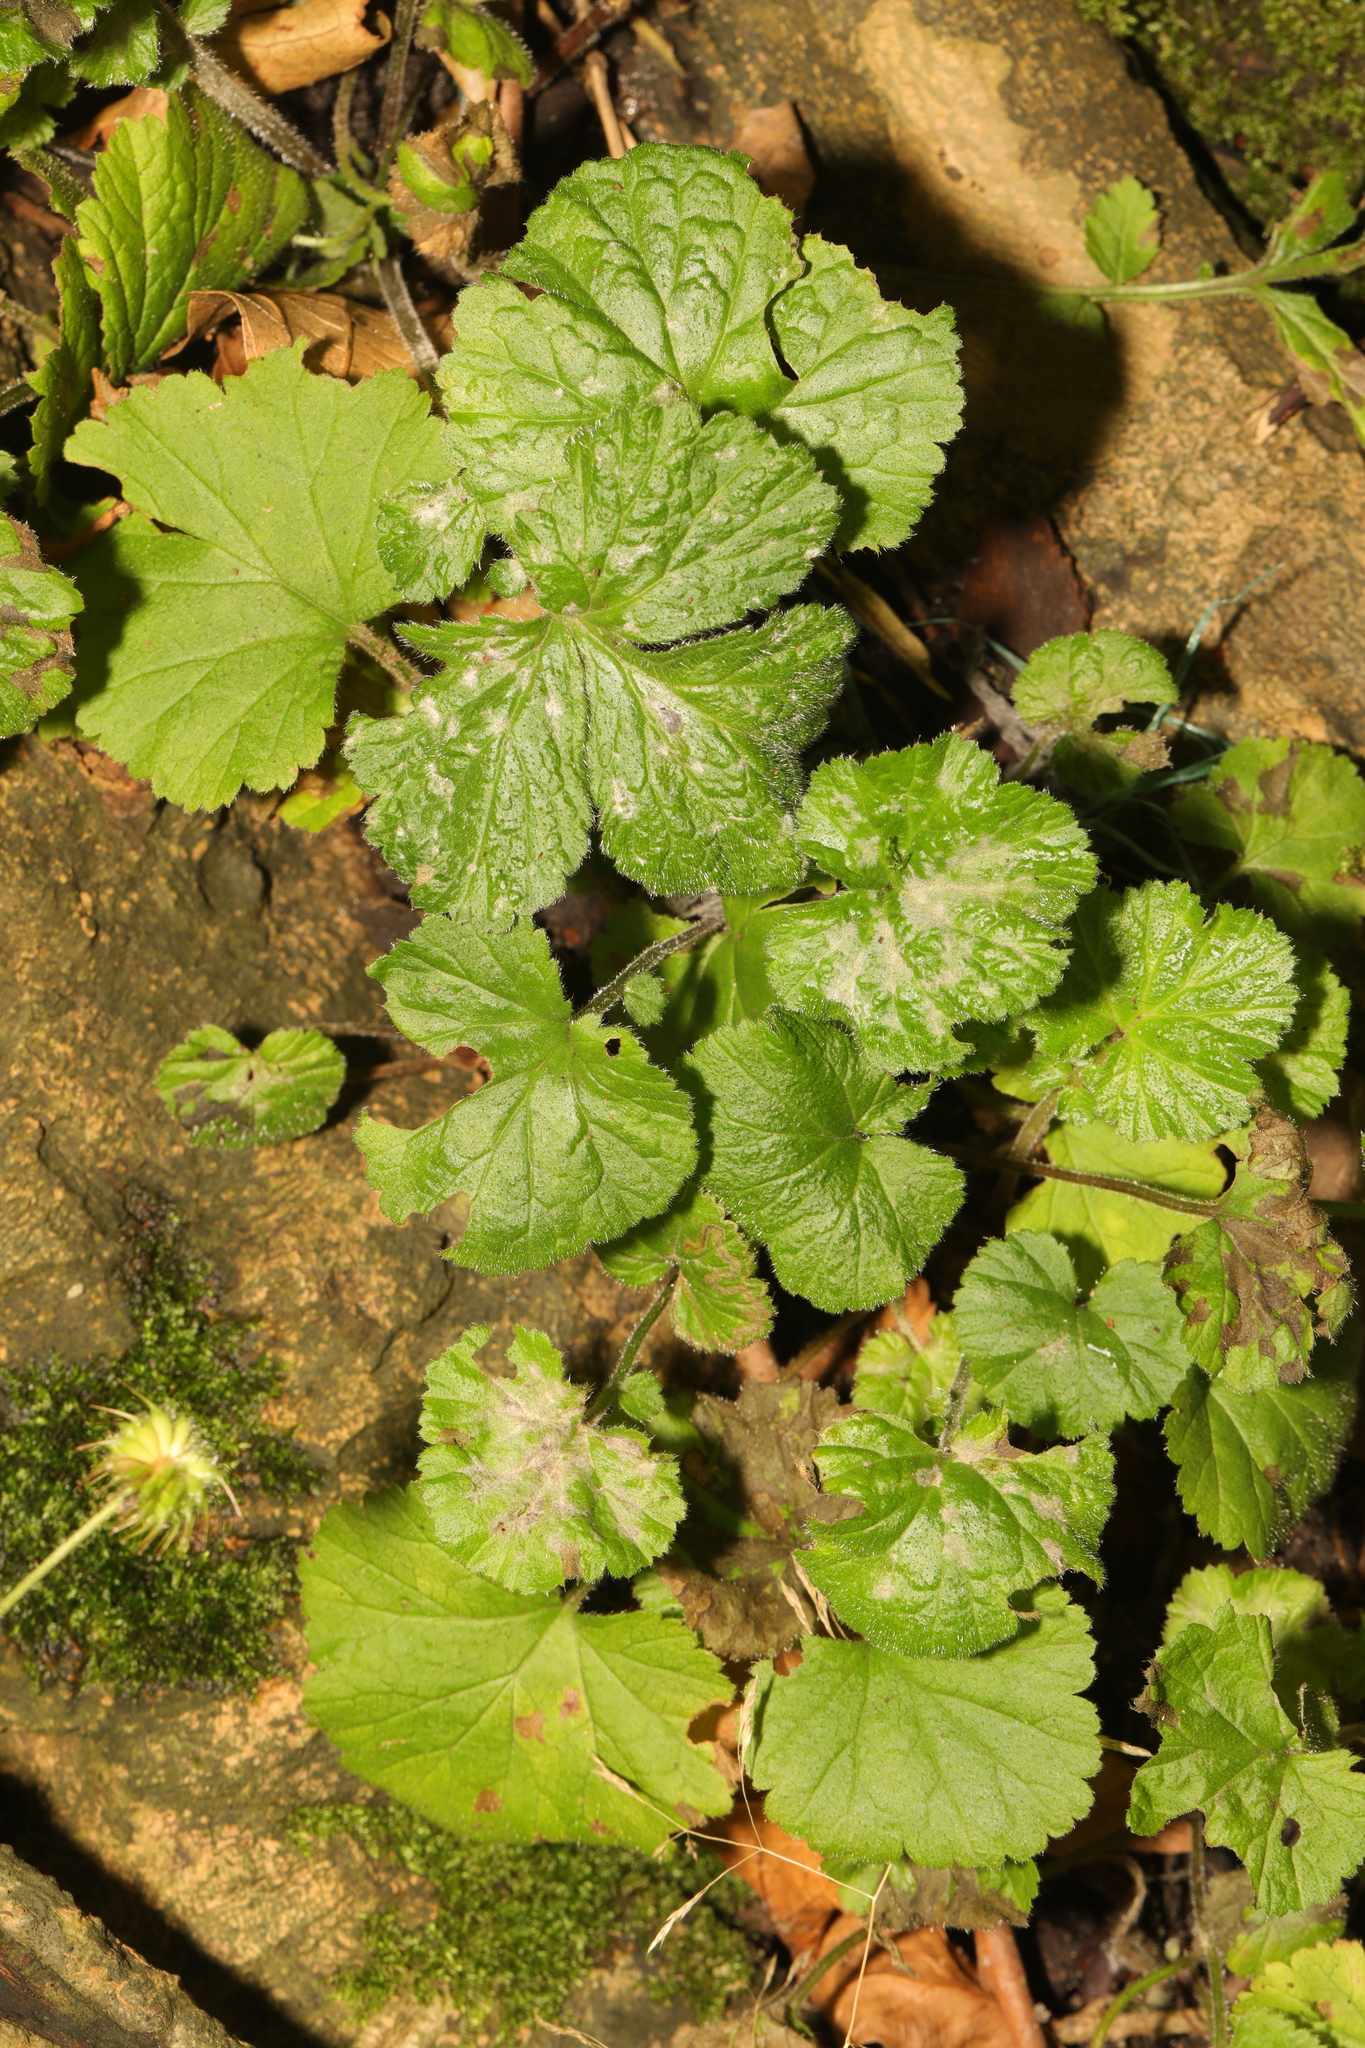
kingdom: Plantae
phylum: Tracheophyta
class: Magnoliopsida
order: Rosales
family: Rosaceae
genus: Geum
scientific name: Geum urbanum
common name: Wood avens
